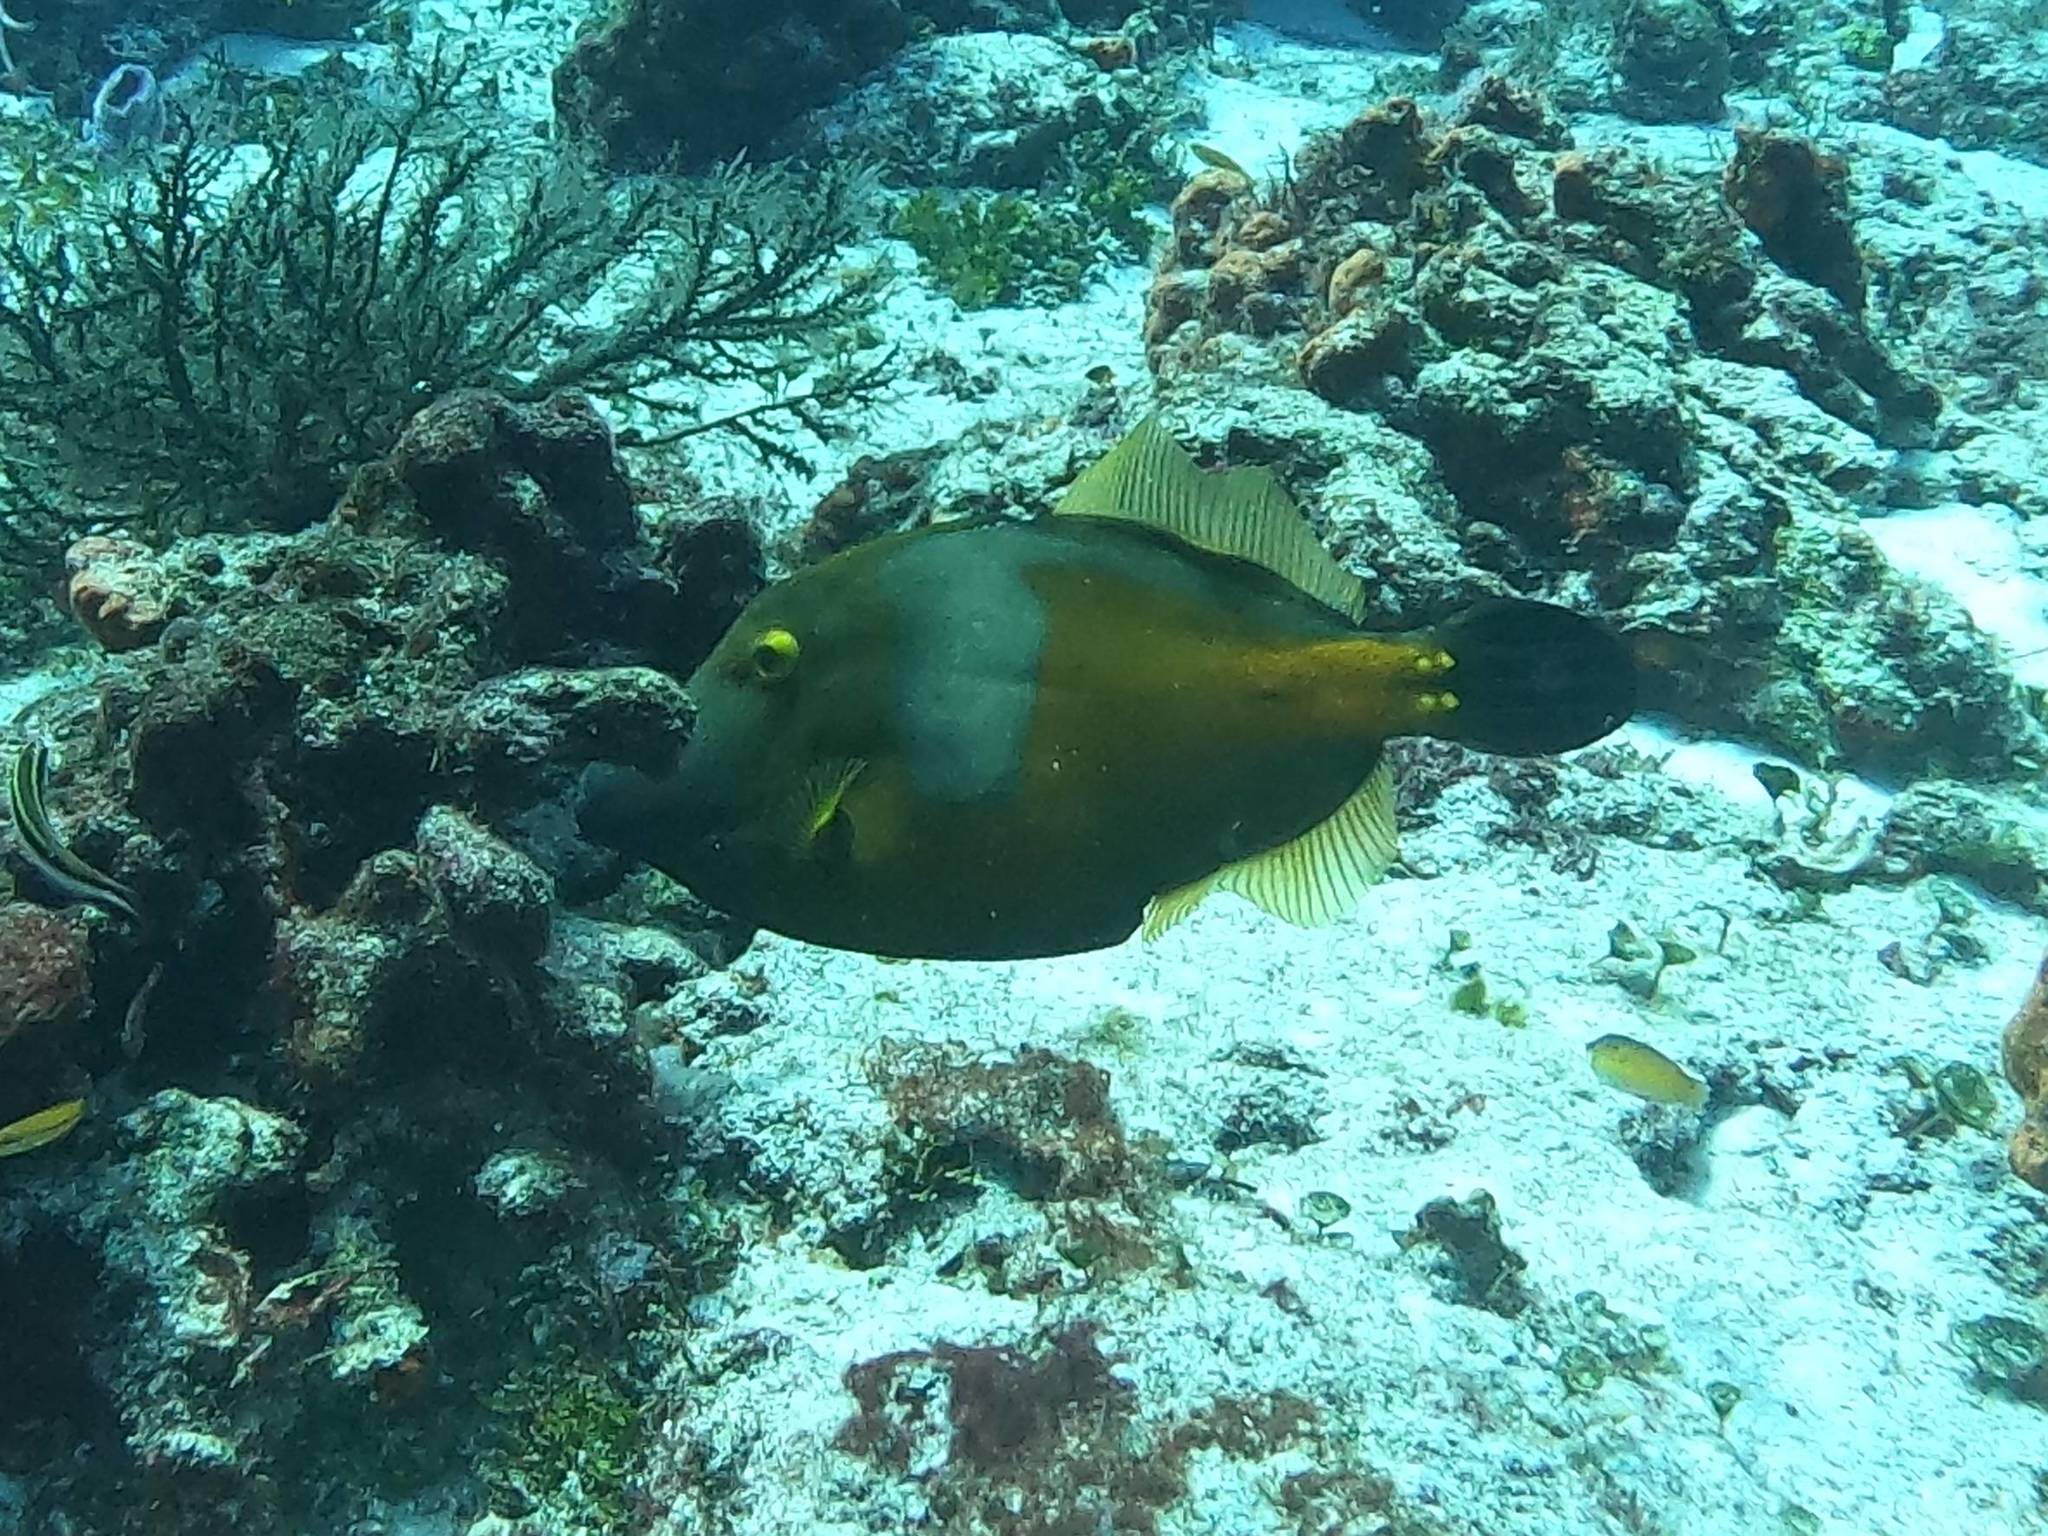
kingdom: Animalia
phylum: Chordata
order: Tetraodontiformes
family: Monacanthidae
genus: Cantherhines
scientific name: Cantherhines macrocerus
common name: Whitespotted filefish
